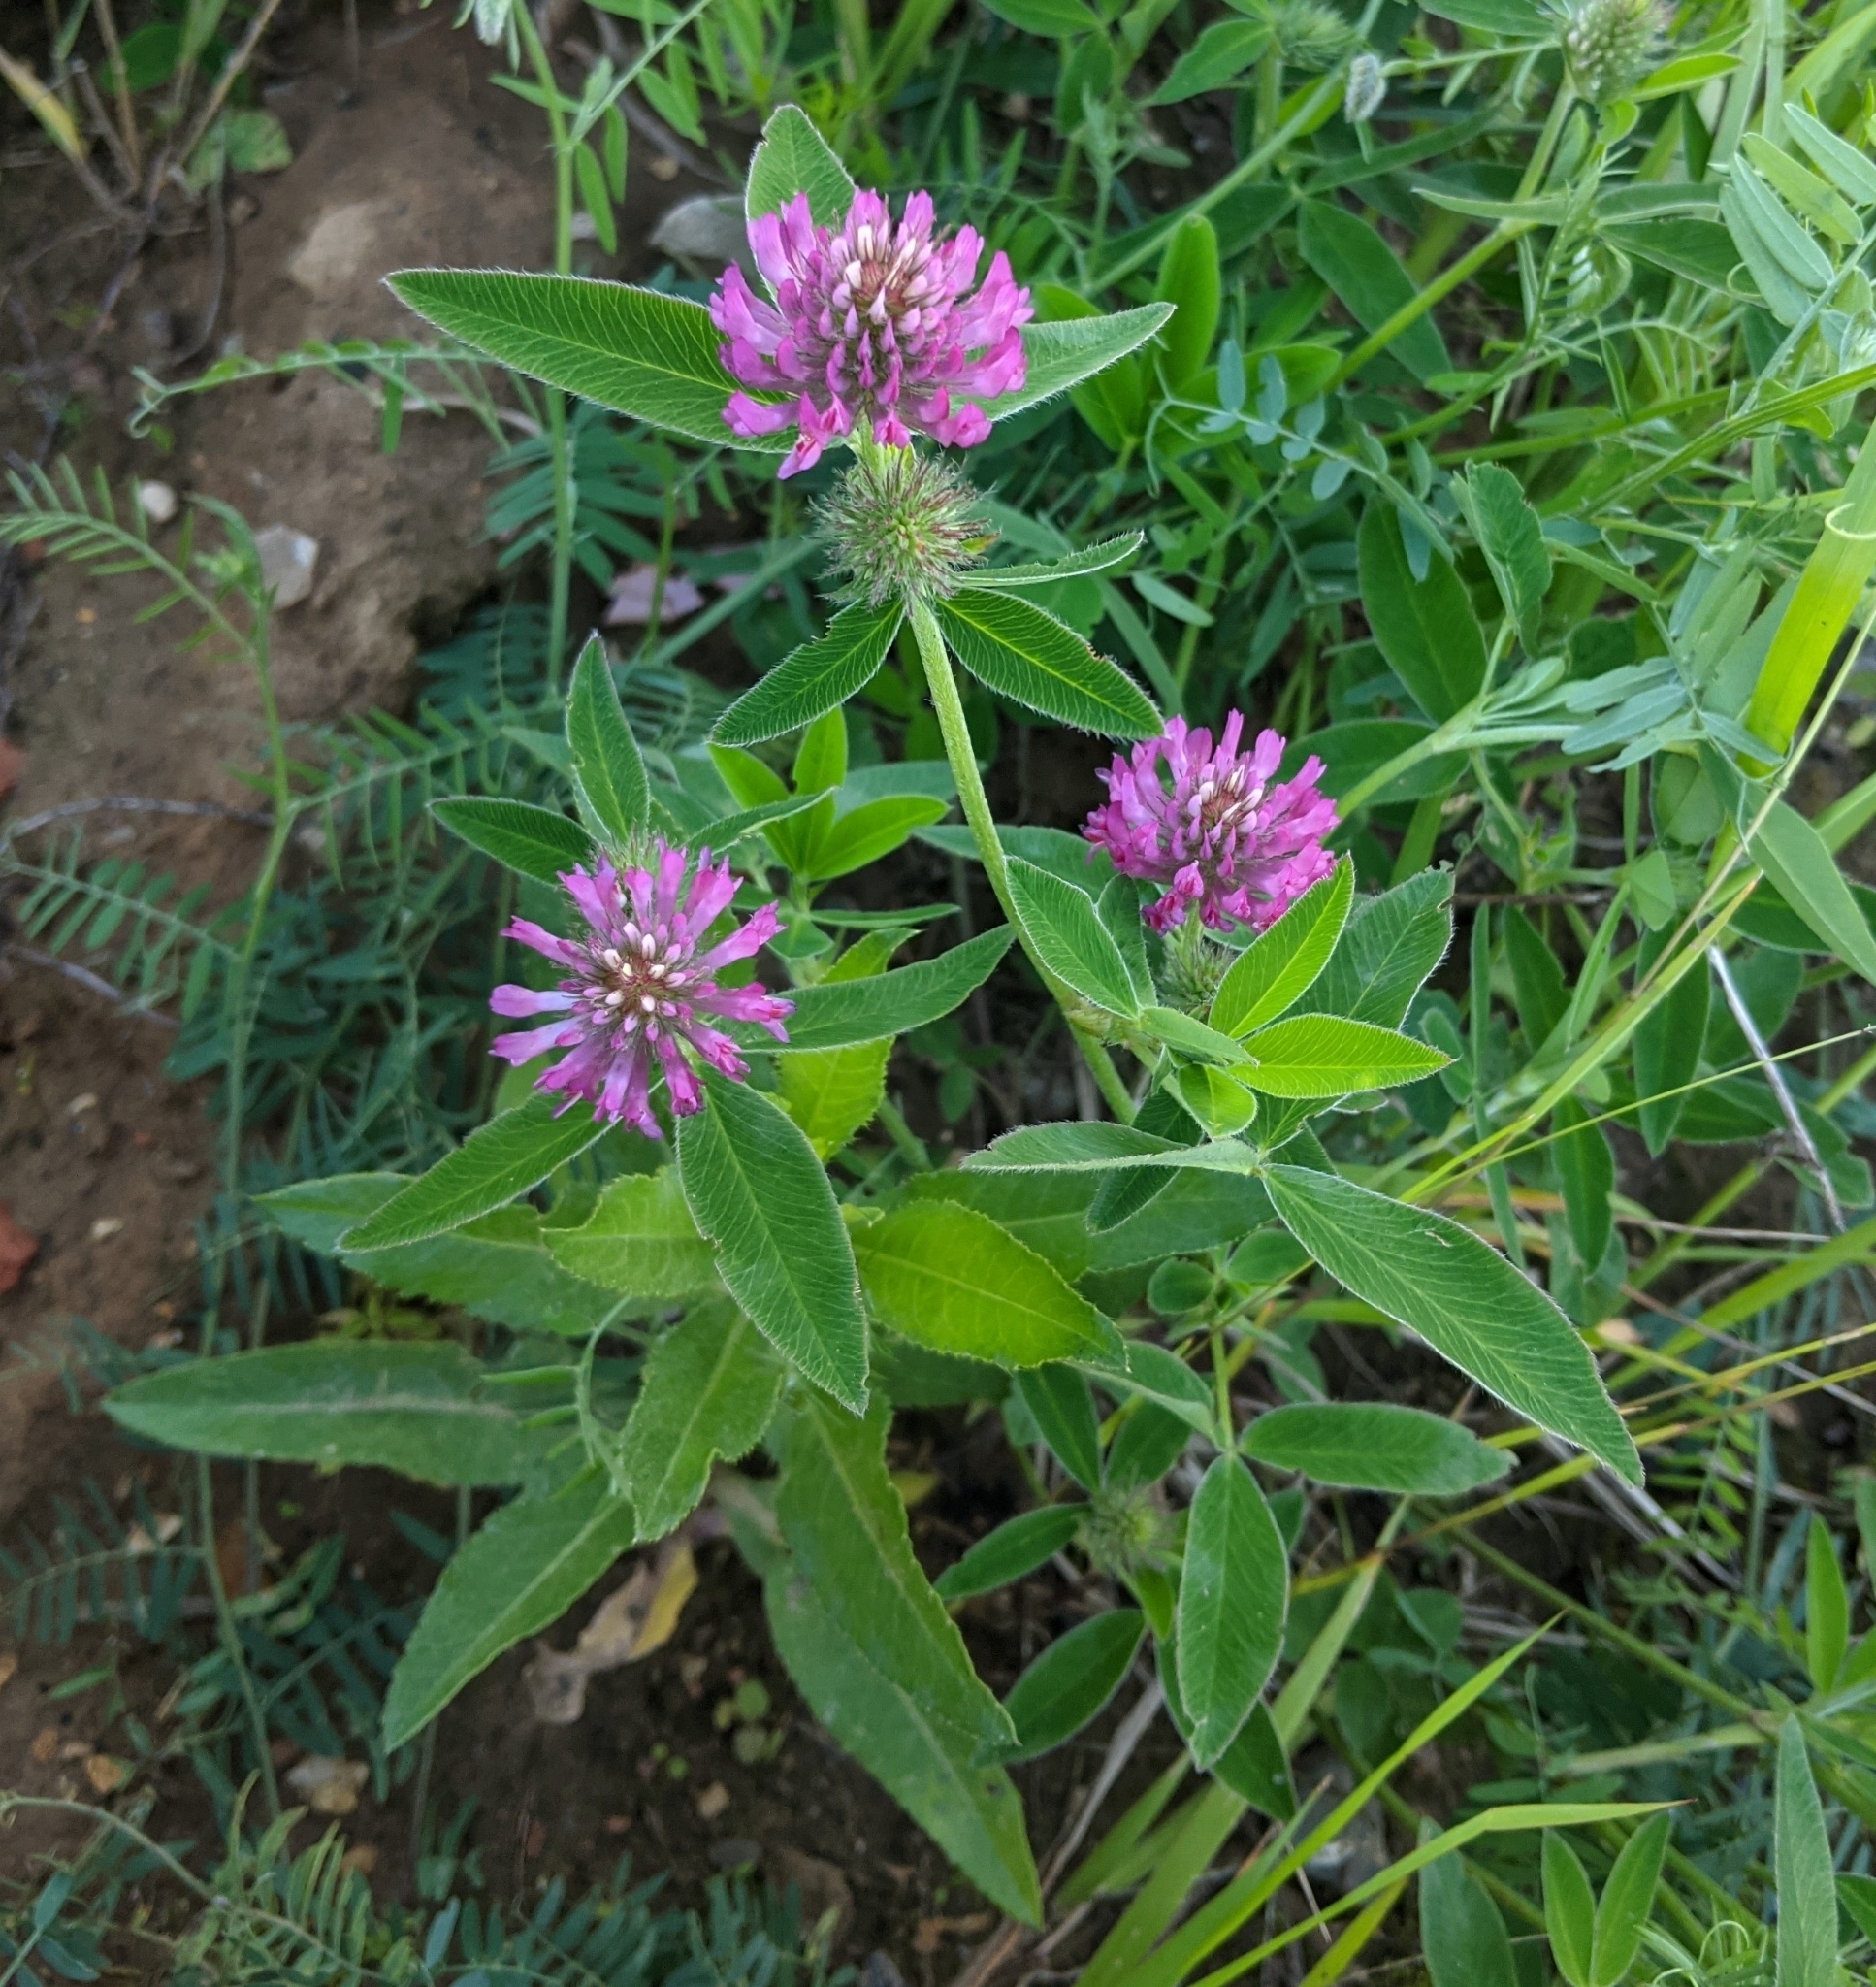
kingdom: Plantae
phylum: Tracheophyta
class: Magnoliopsida
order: Fabales
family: Fabaceae
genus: Trifolium
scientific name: Trifolium medium
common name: Zigzag clover
